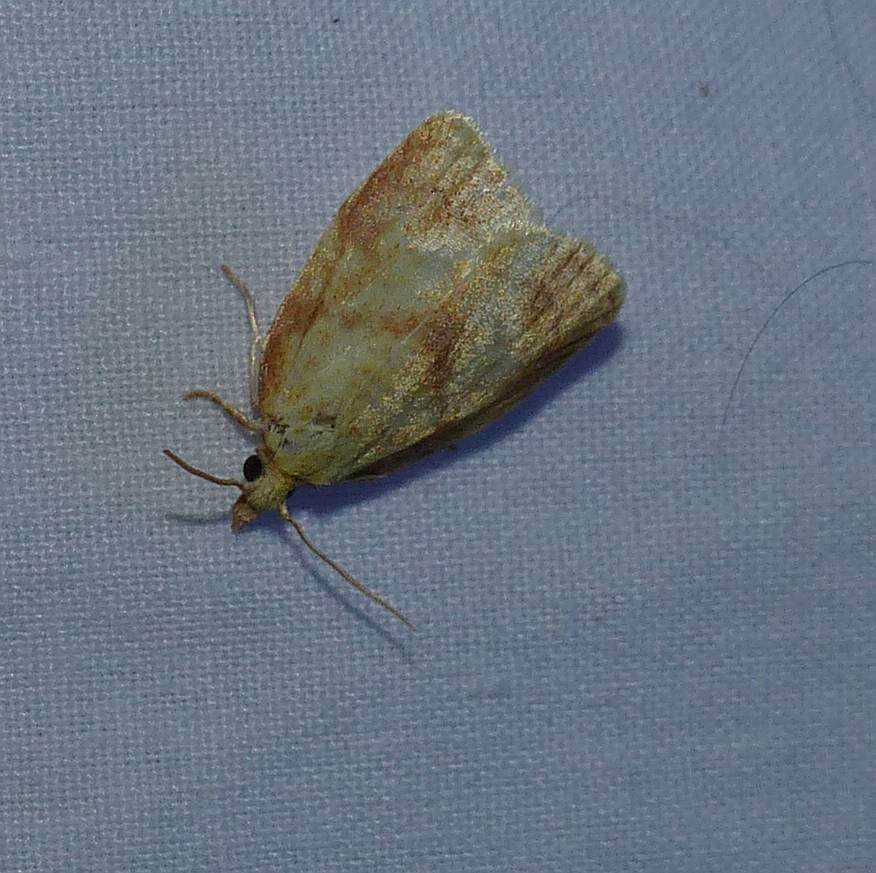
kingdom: Animalia
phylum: Arthropoda
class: Insecta
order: Lepidoptera
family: Tortricidae
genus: Cenopis
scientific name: Cenopis pettitana
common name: Maple-basswood leafroller moth
